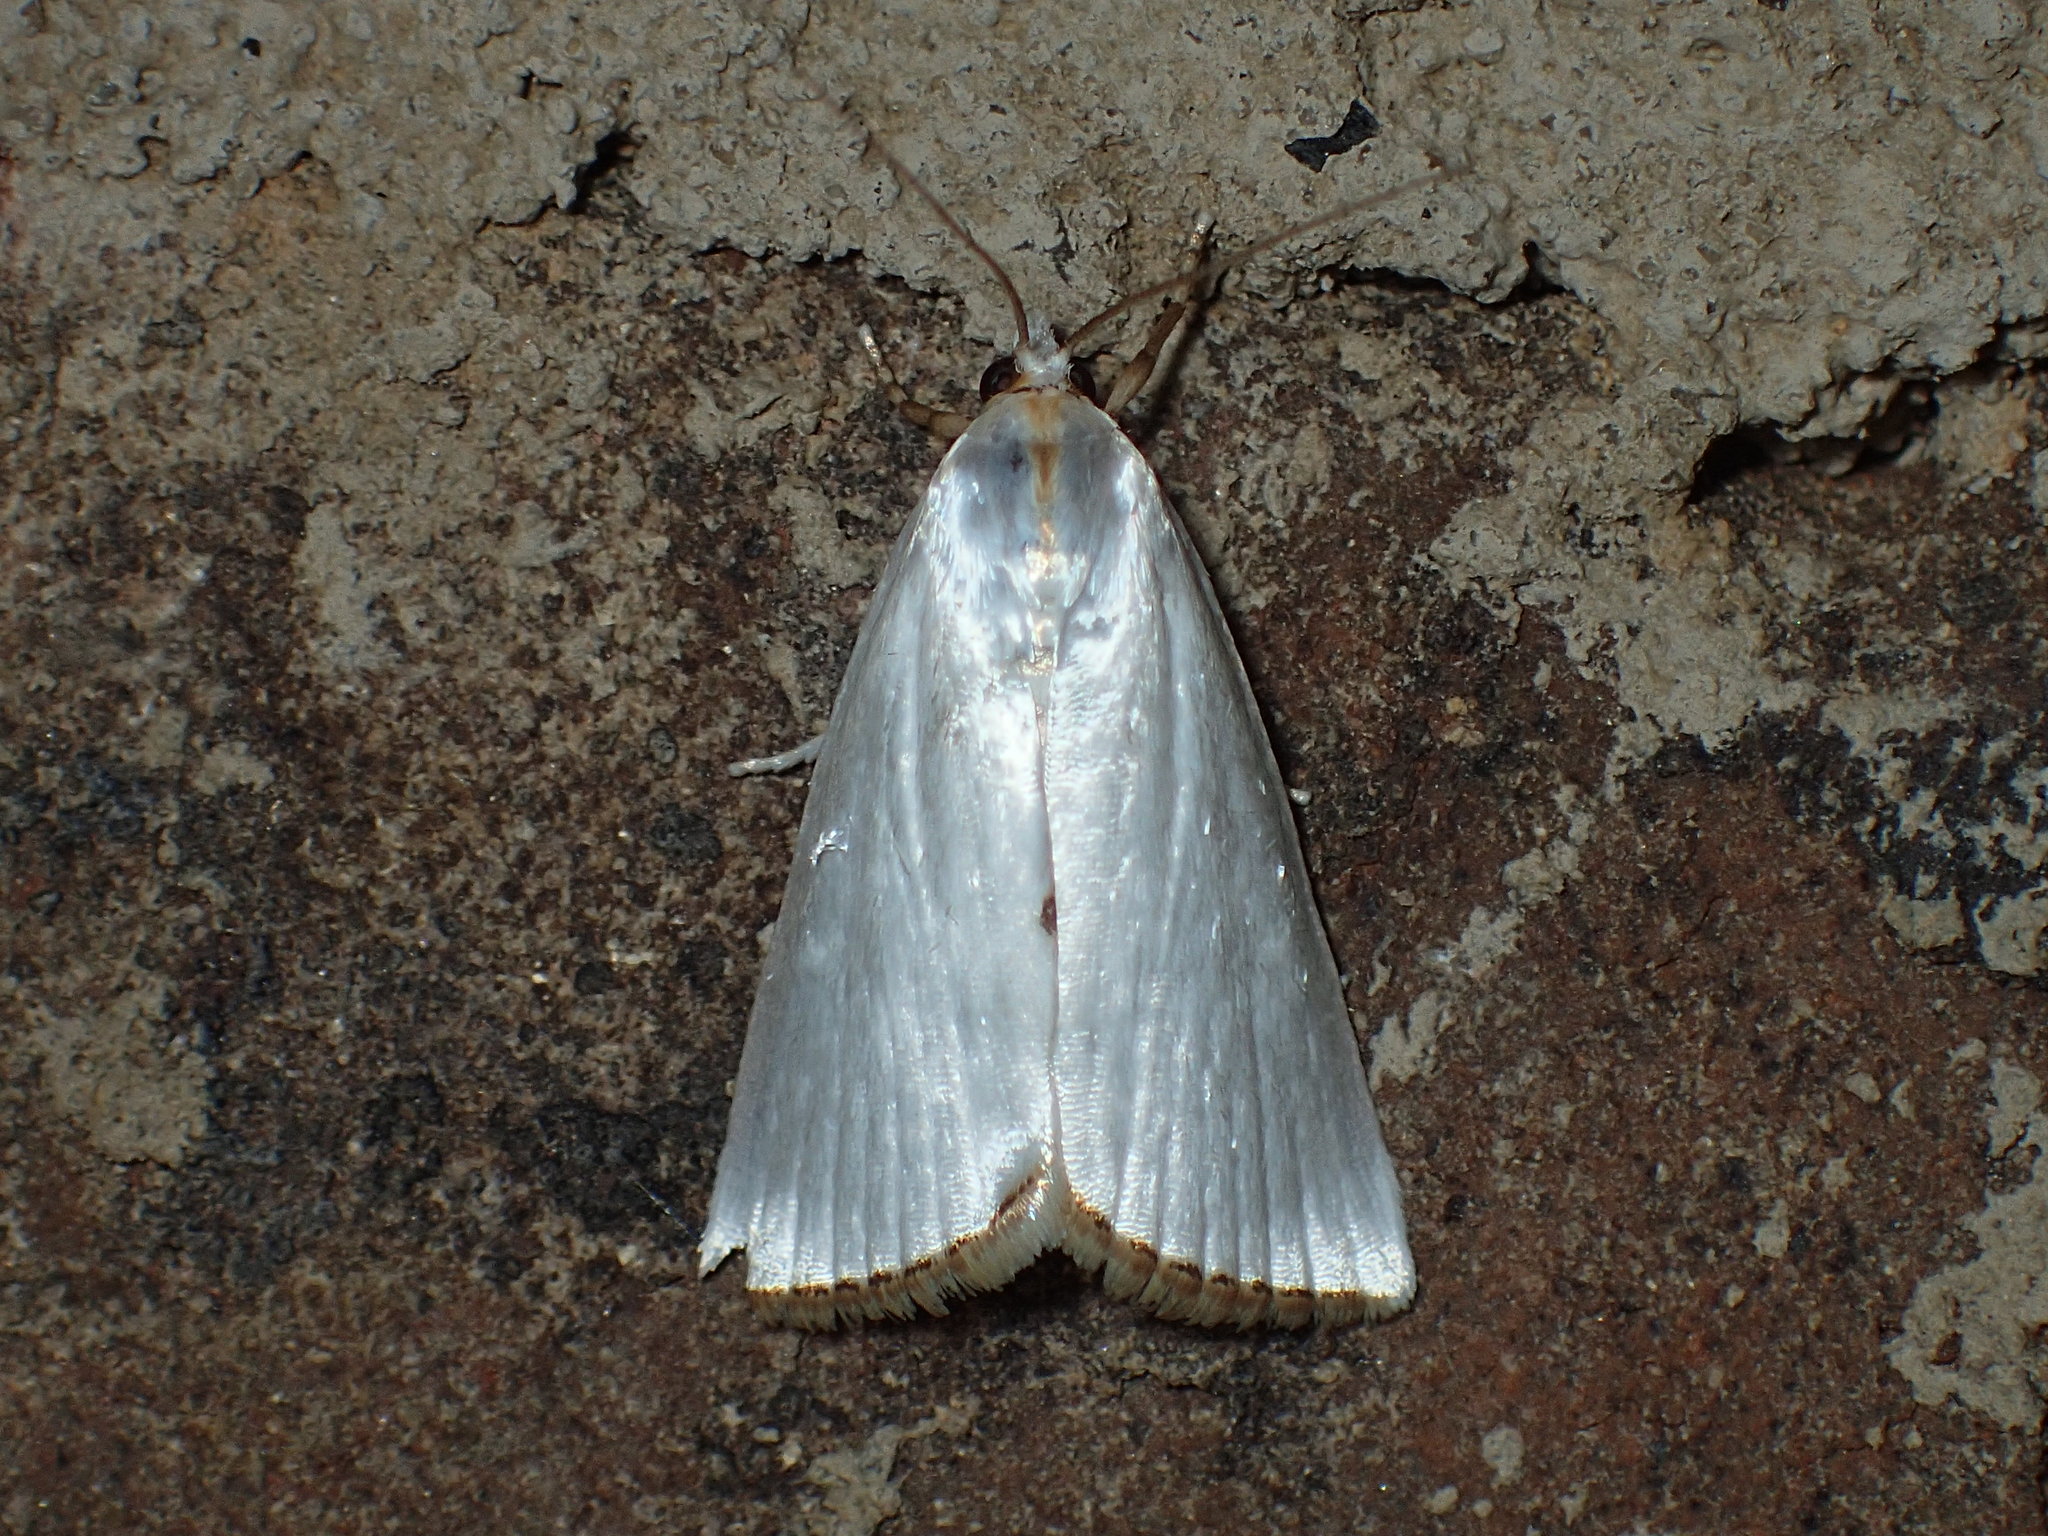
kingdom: Animalia
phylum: Arthropoda
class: Insecta
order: Lepidoptera
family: Crambidae
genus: Argyria
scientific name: Argyria nivalis
